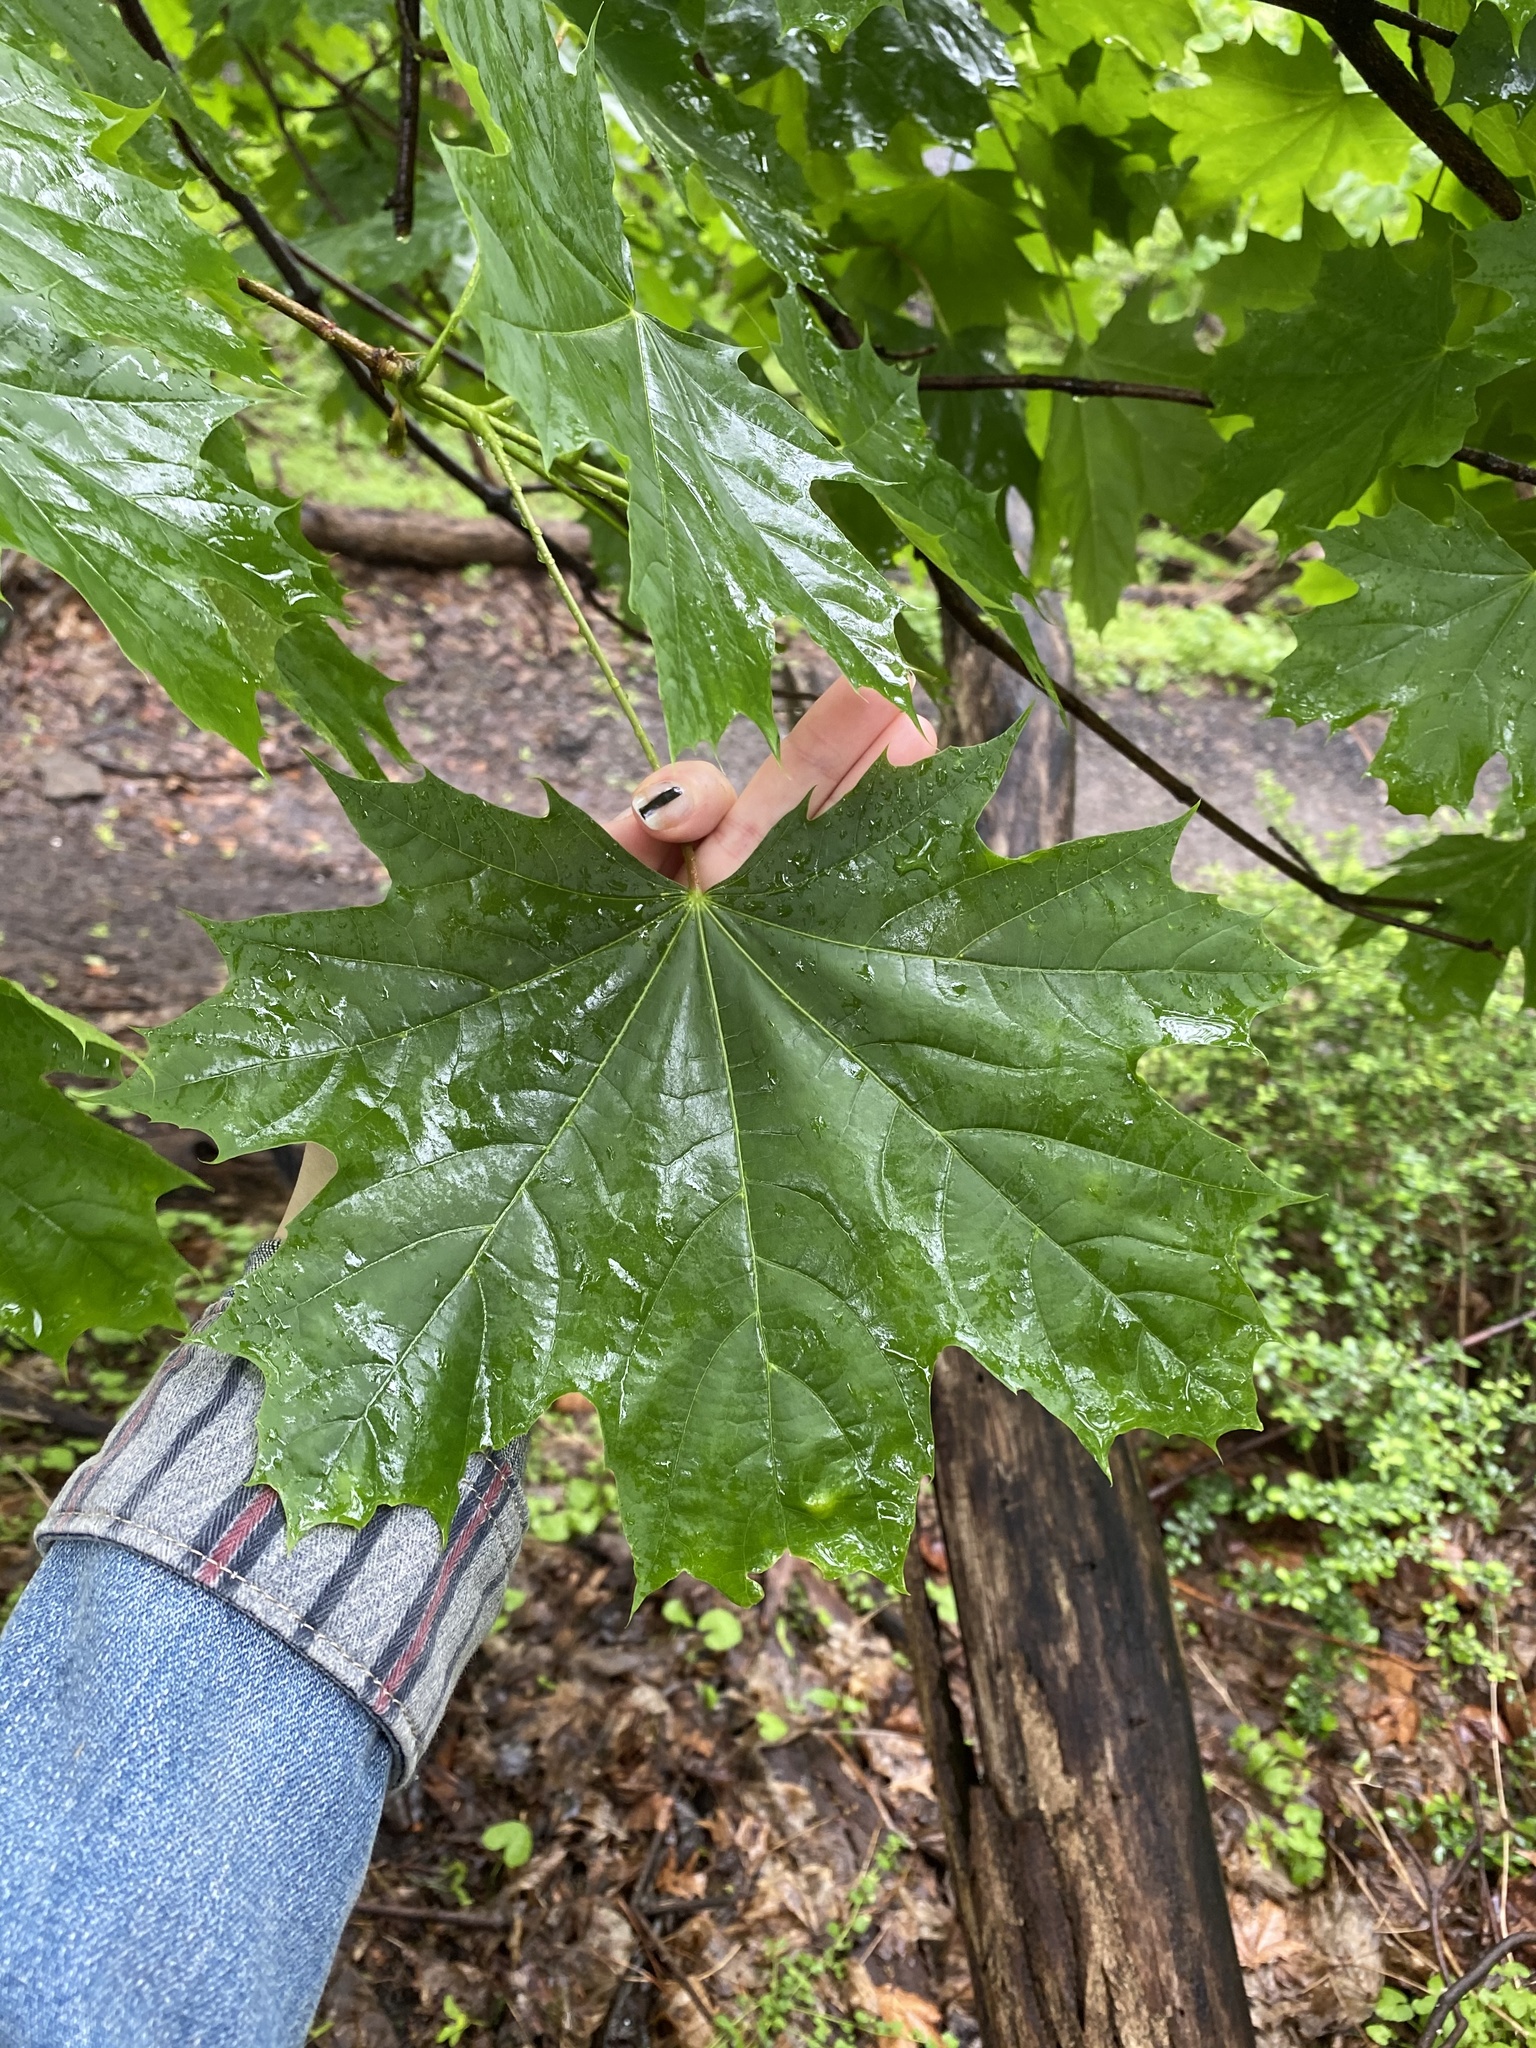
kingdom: Plantae
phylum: Tracheophyta
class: Magnoliopsida
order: Sapindales
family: Sapindaceae
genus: Acer
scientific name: Acer platanoides
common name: Norway maple
